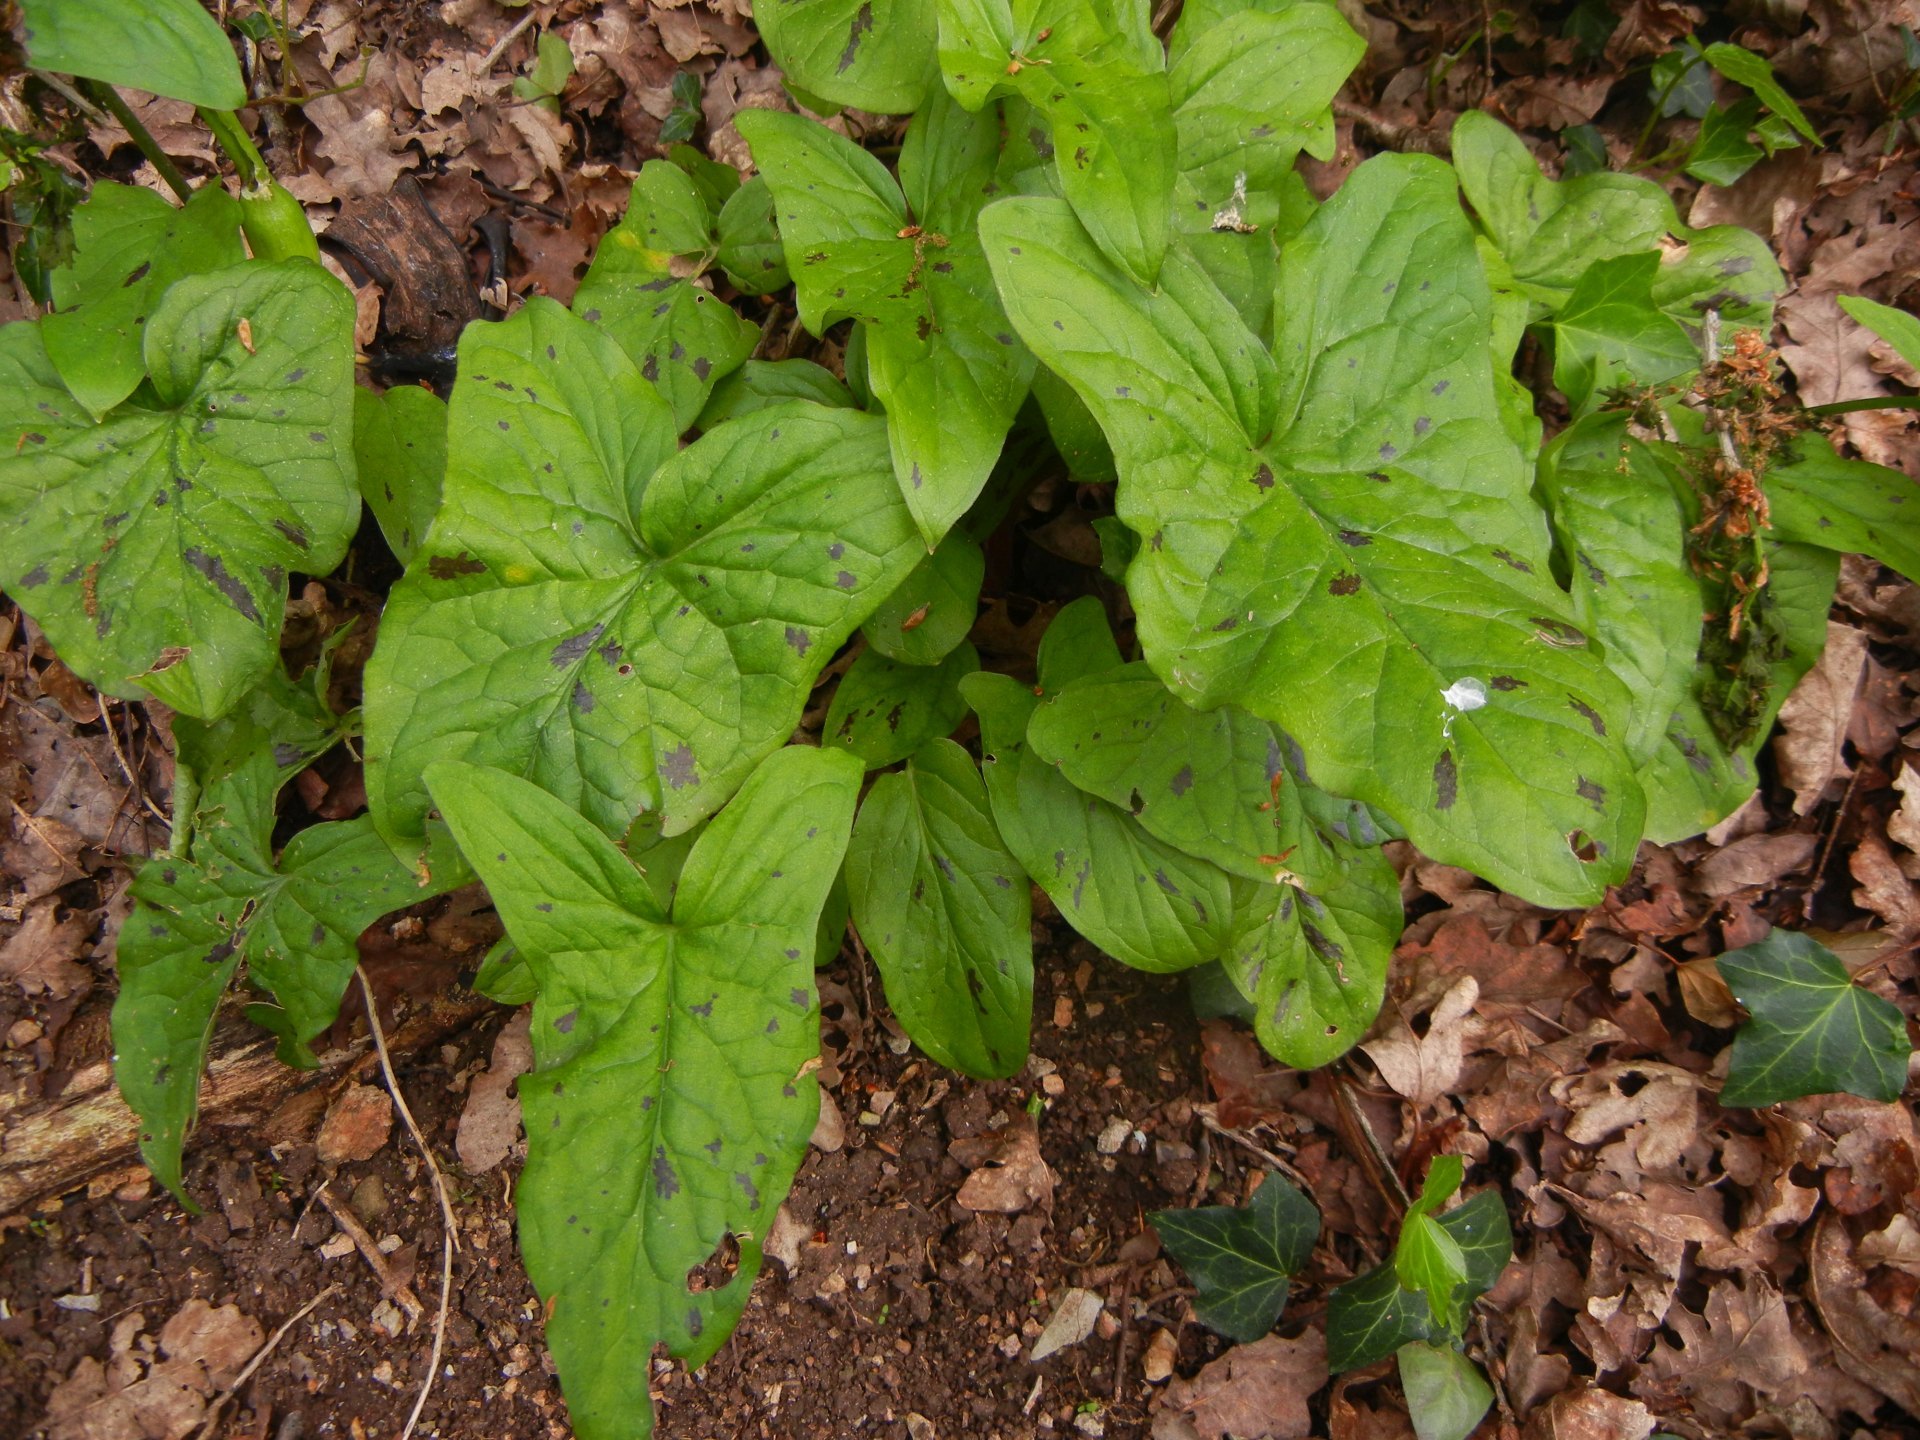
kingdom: Plantae
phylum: Tracheophyta
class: Liliopsida
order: Alismatales
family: Araceae
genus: Arum
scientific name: Arum maculatum
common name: Lords-and-ladies
